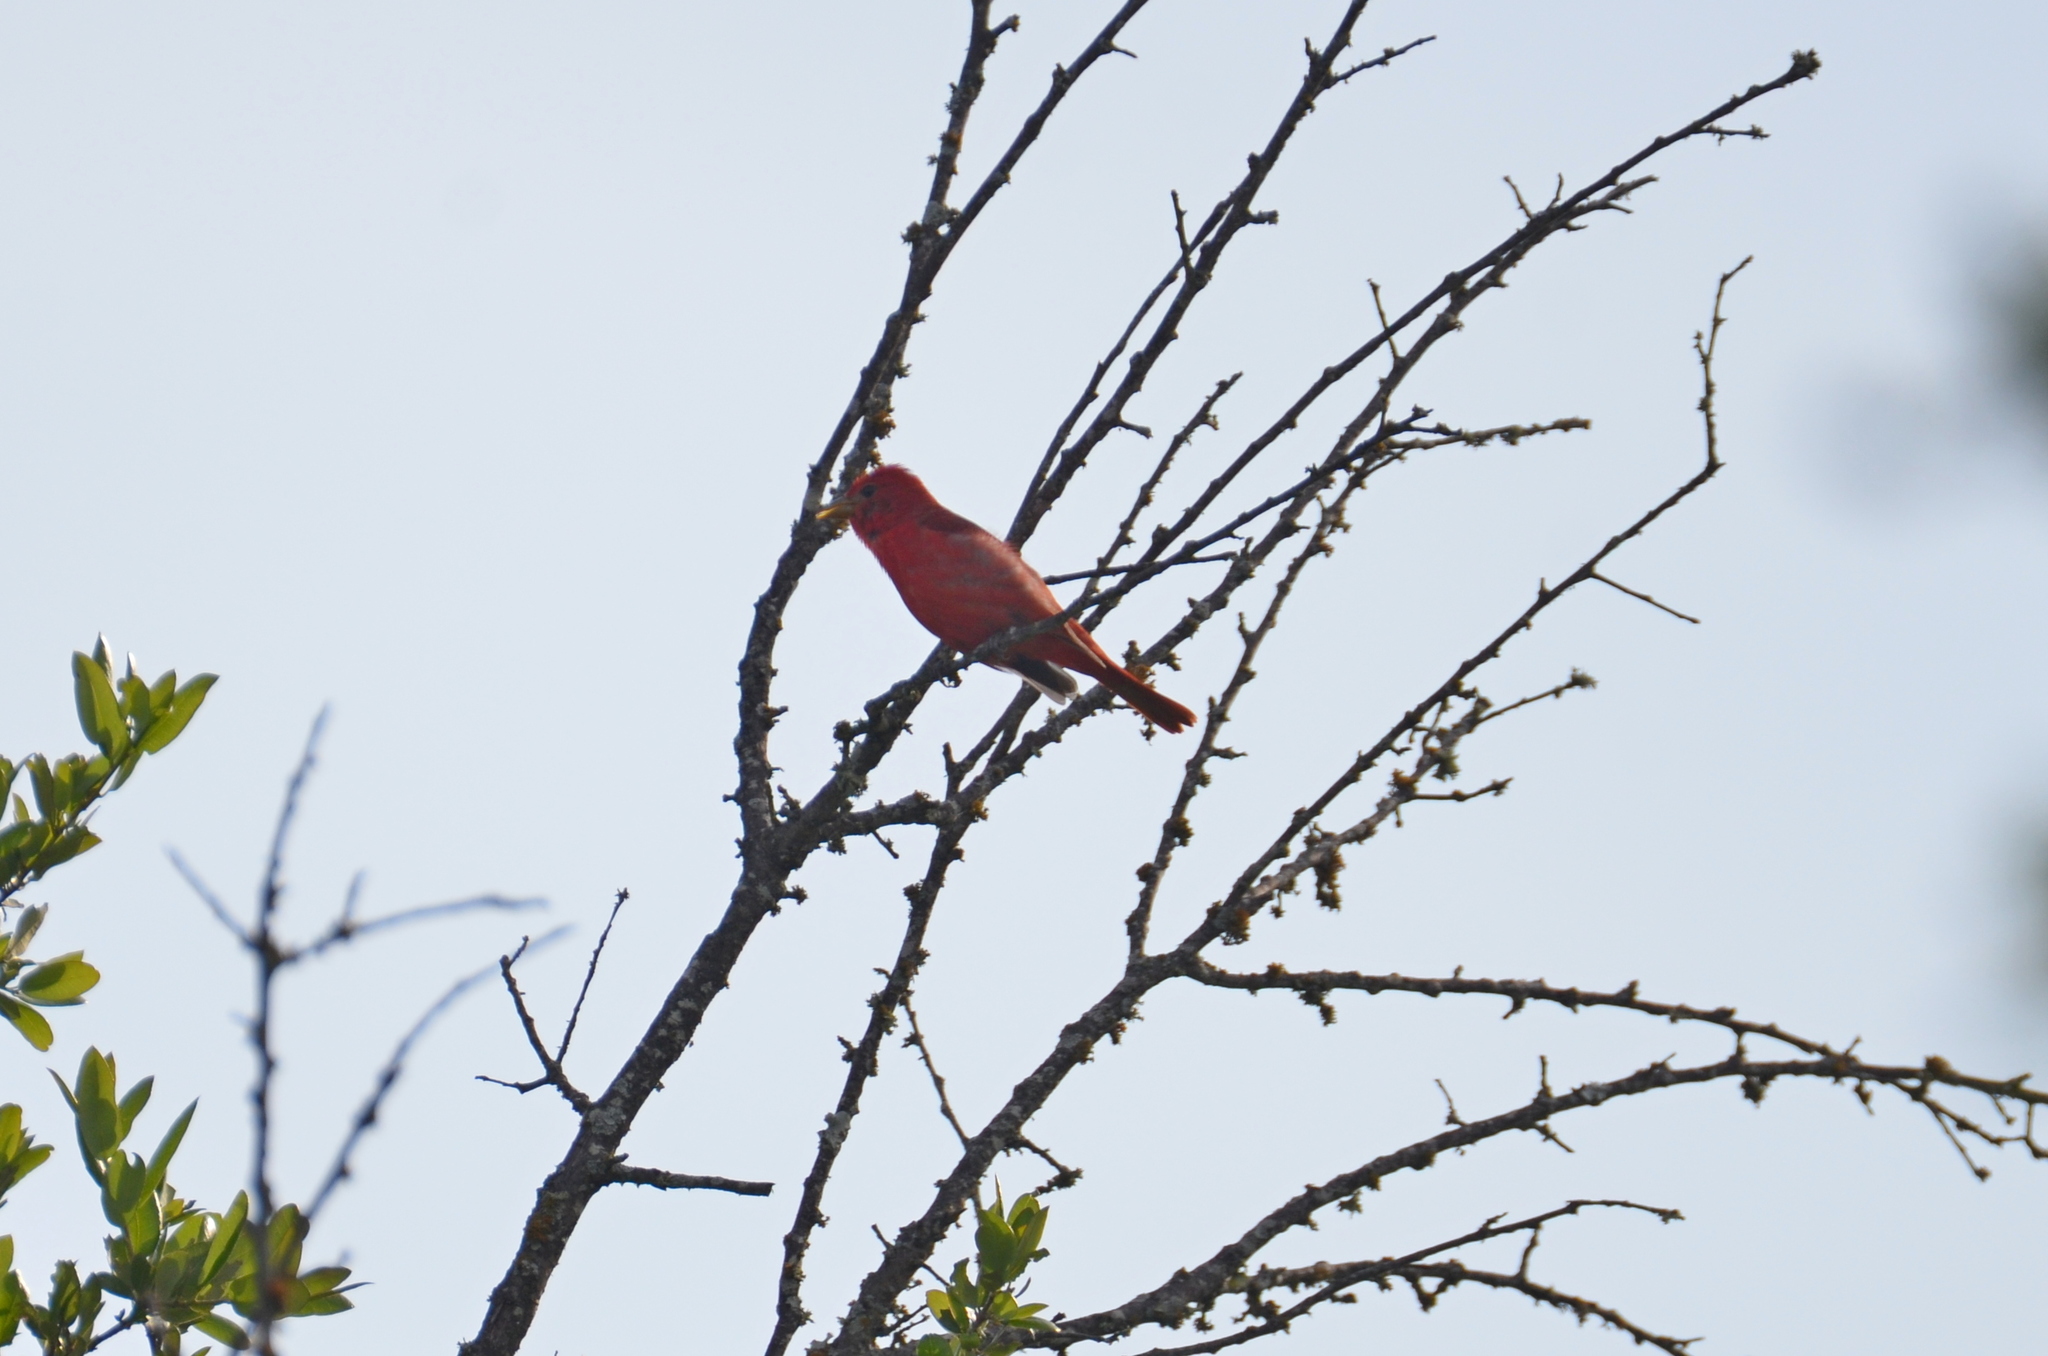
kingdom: Animalia
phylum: Chordata
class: Aves
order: Passeriformes
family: Cardinalidae
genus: Piranga
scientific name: Piranga rubra
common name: Summer tanager
